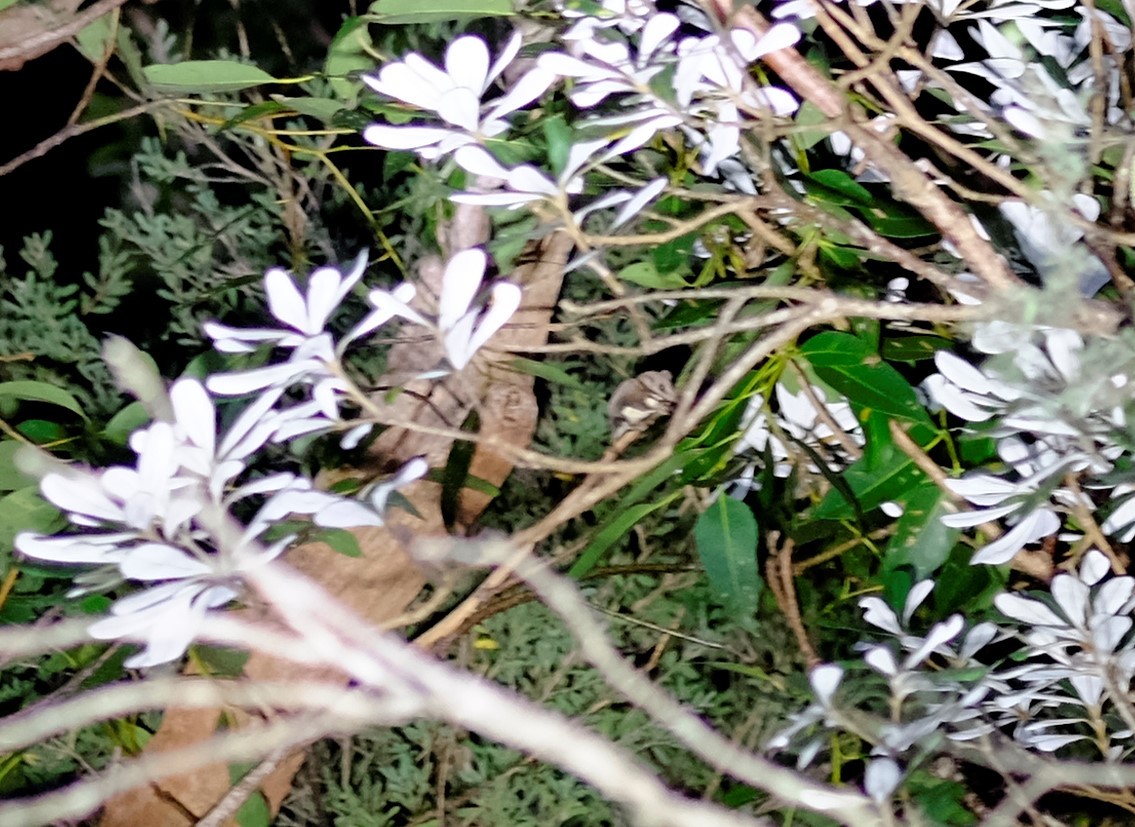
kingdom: Animalia
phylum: Chordata
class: Mammalia
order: Diprotodontia
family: Acrobatidae
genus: Acrobates
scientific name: Acrobates pygmaeus
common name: Feathertail glider
